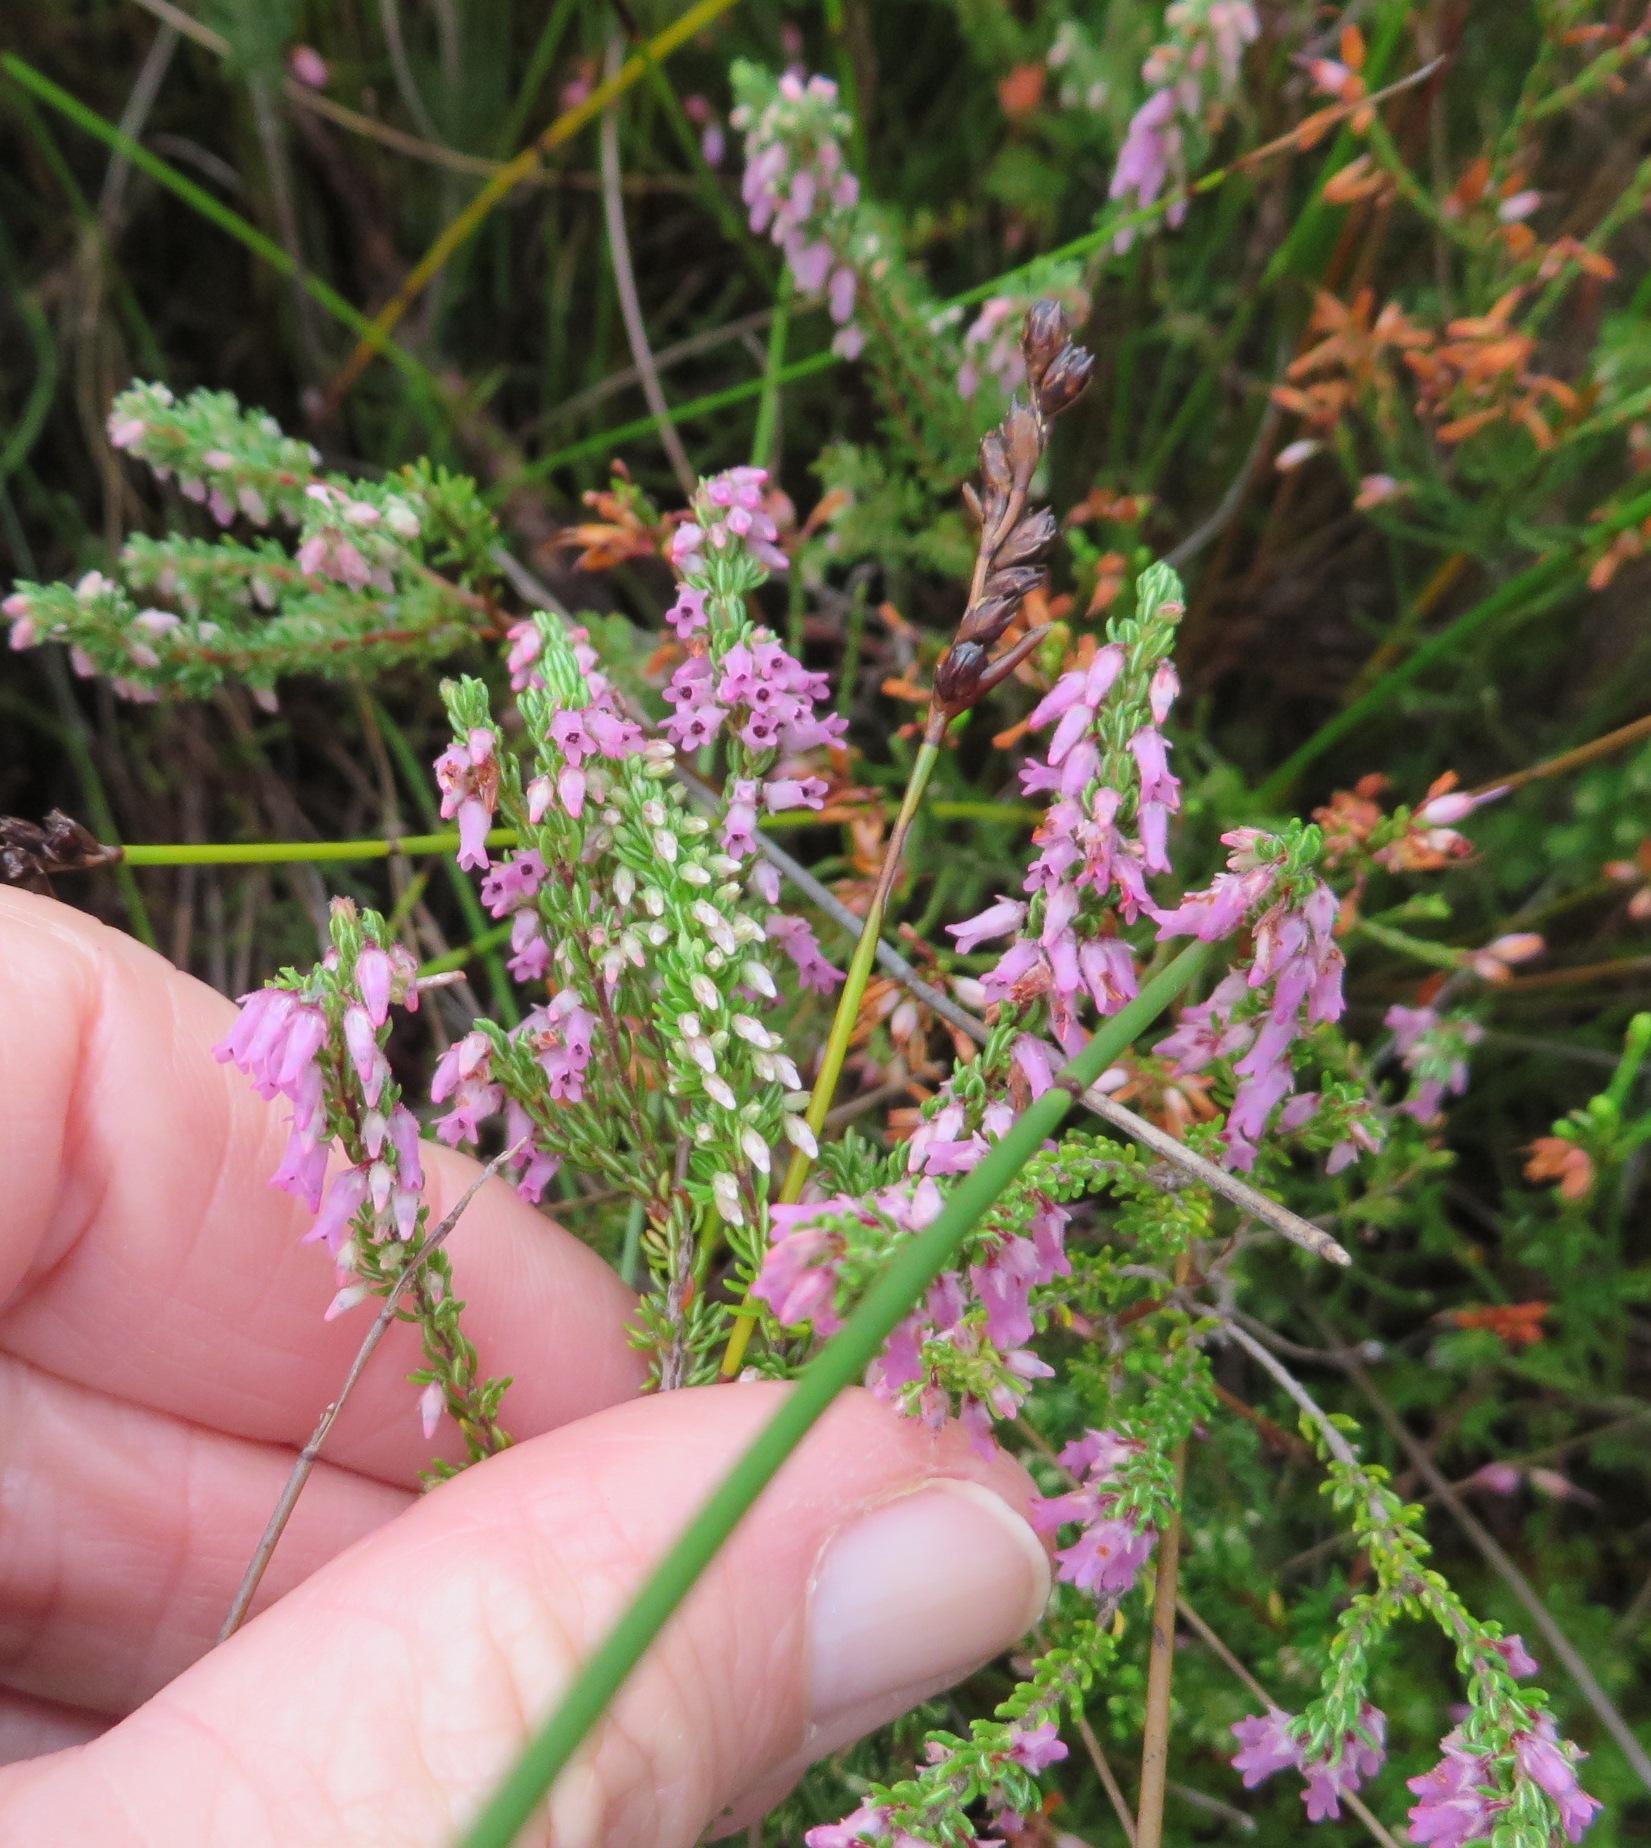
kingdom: Plantae
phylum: Tracheophyta
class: Magnoliopsida
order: Ericales
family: Ericaceae
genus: Erica
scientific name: Erica intervallaris
